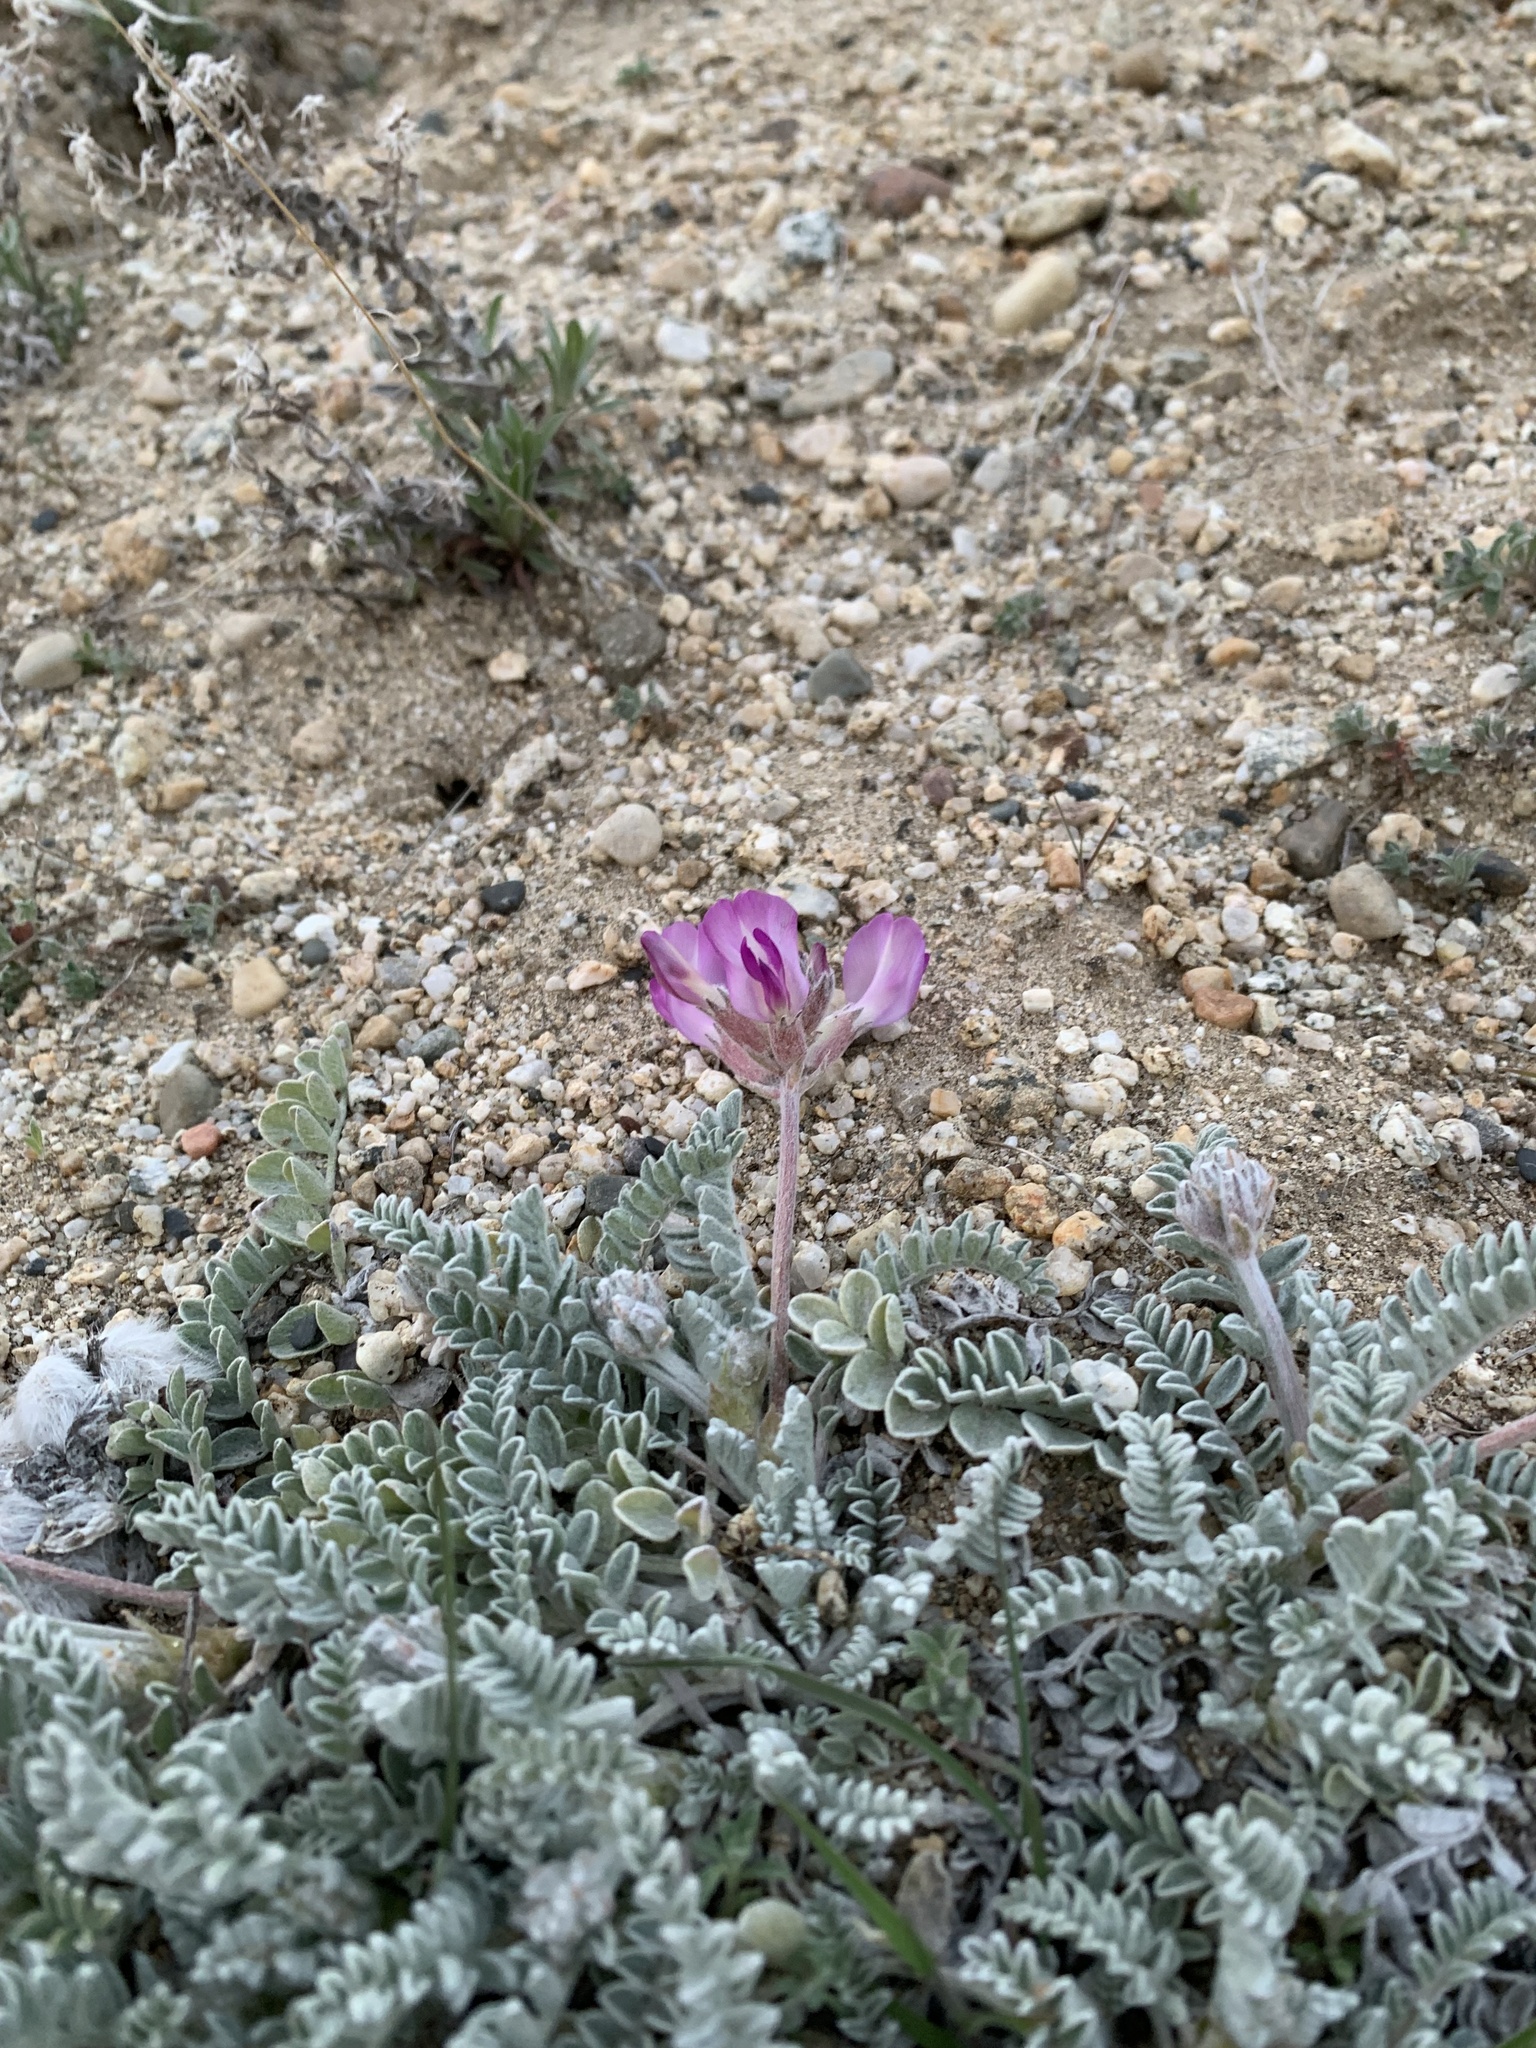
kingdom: Plantae
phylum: Tracheophyta
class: Magnoliopsida
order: Fabales
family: Fabaceae
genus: Astragalus
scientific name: Astragalus utahensis
